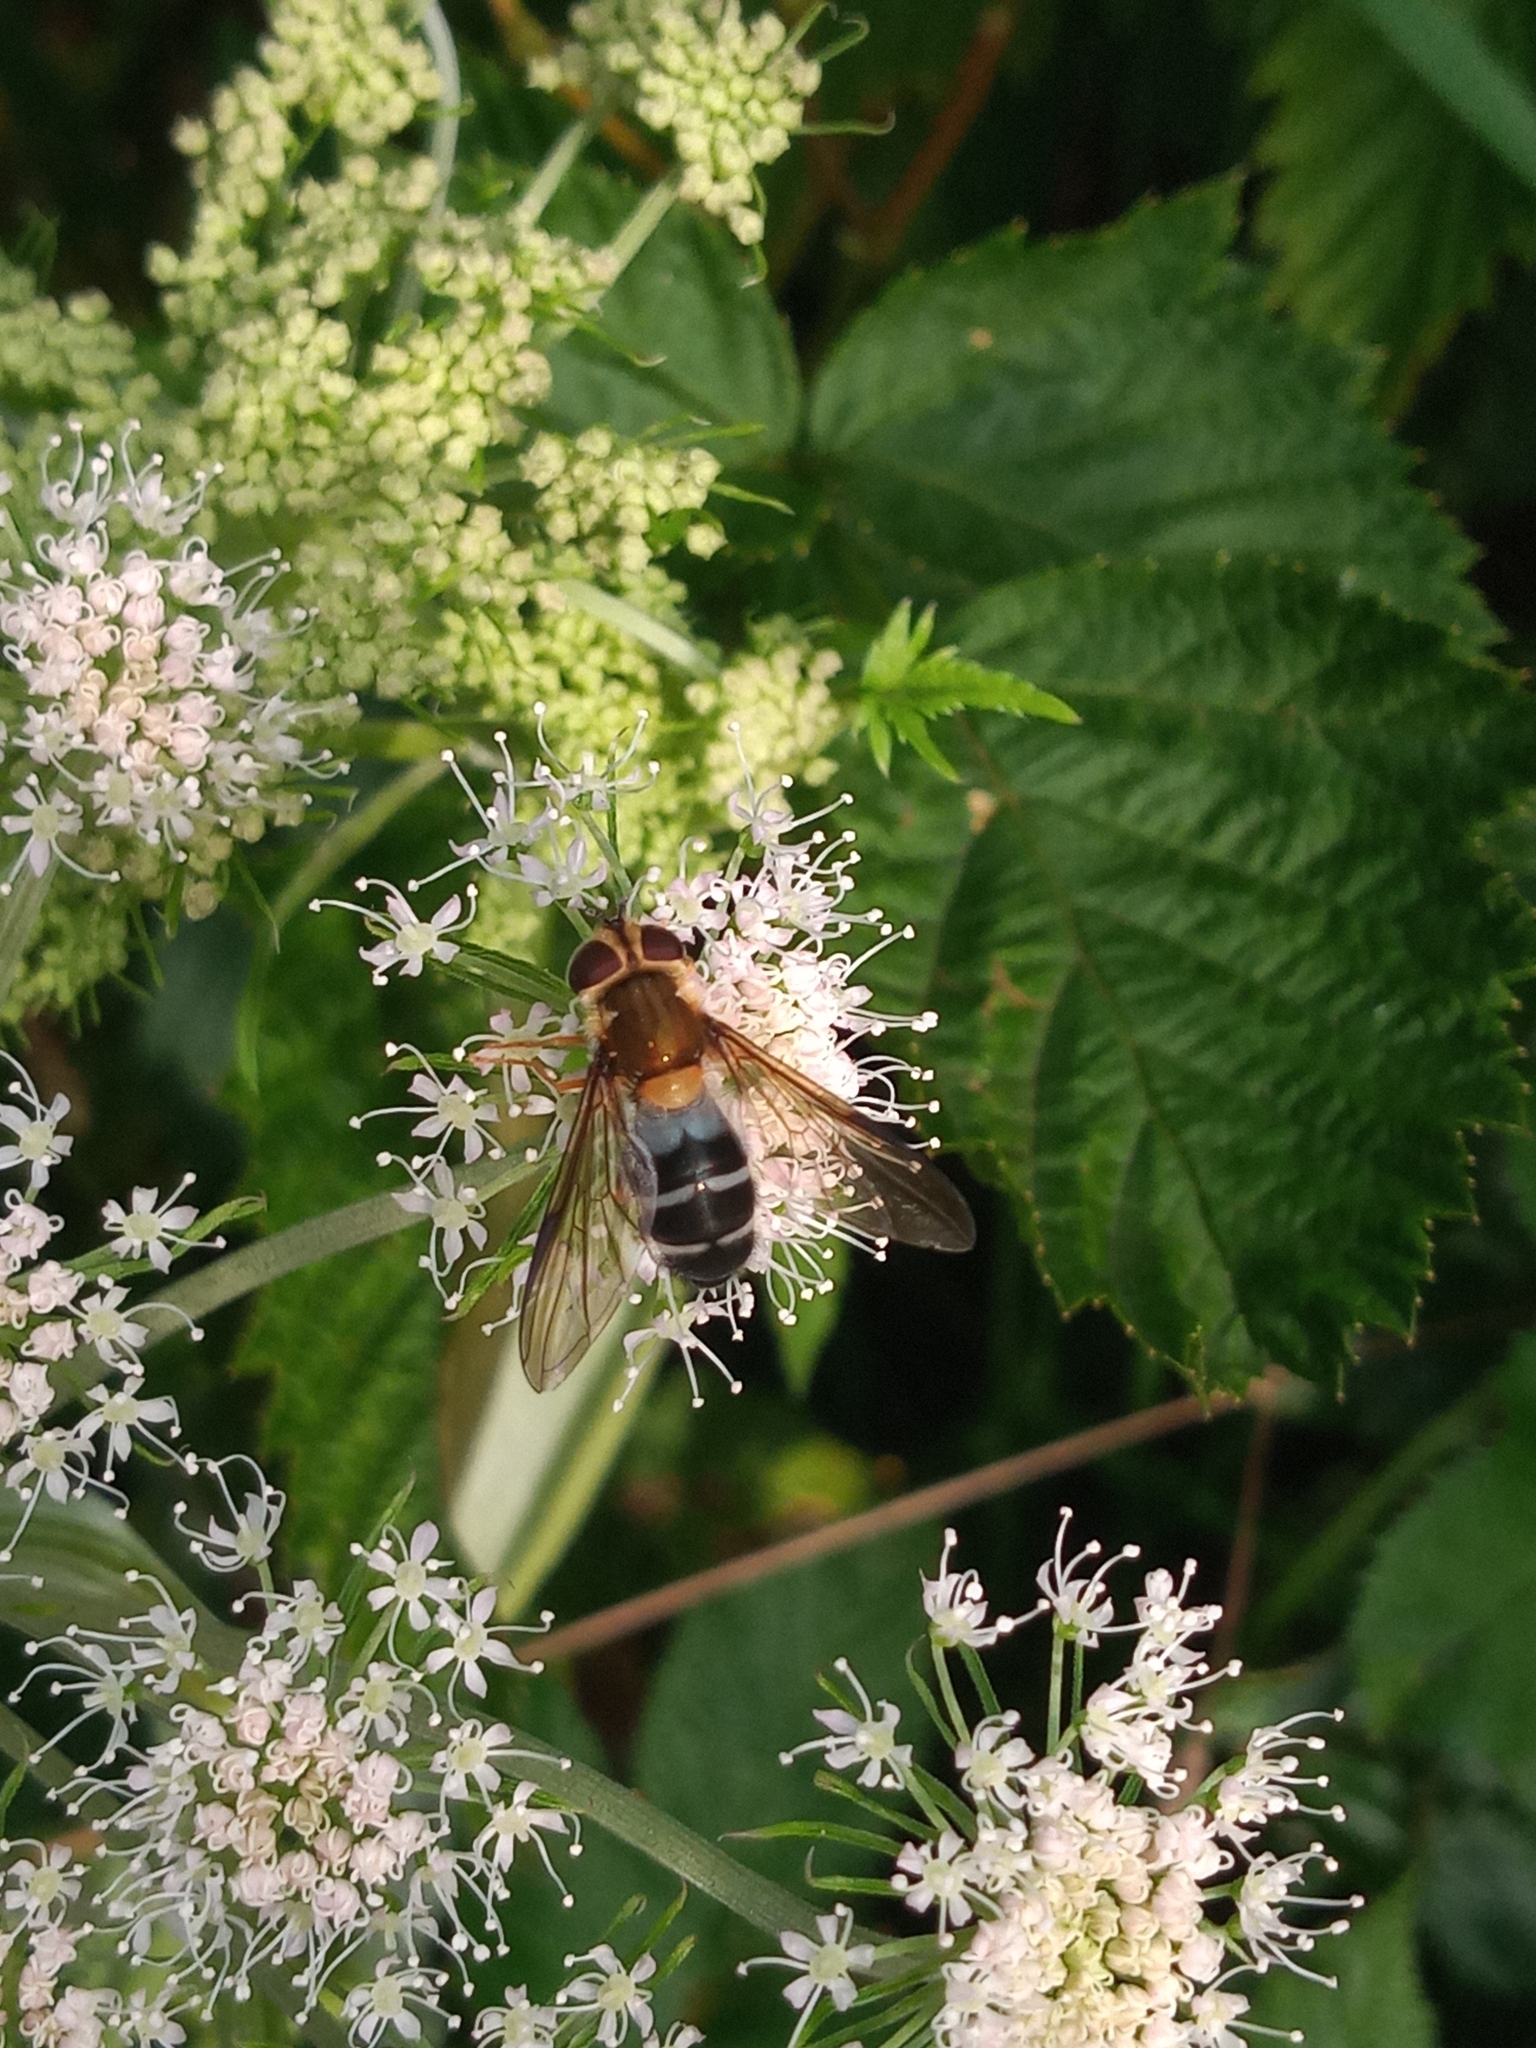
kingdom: Animalia
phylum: Arthropoda
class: Insecta
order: Diptera
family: Syrphidae
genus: Leucozona
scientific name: Leucozona glaucia
